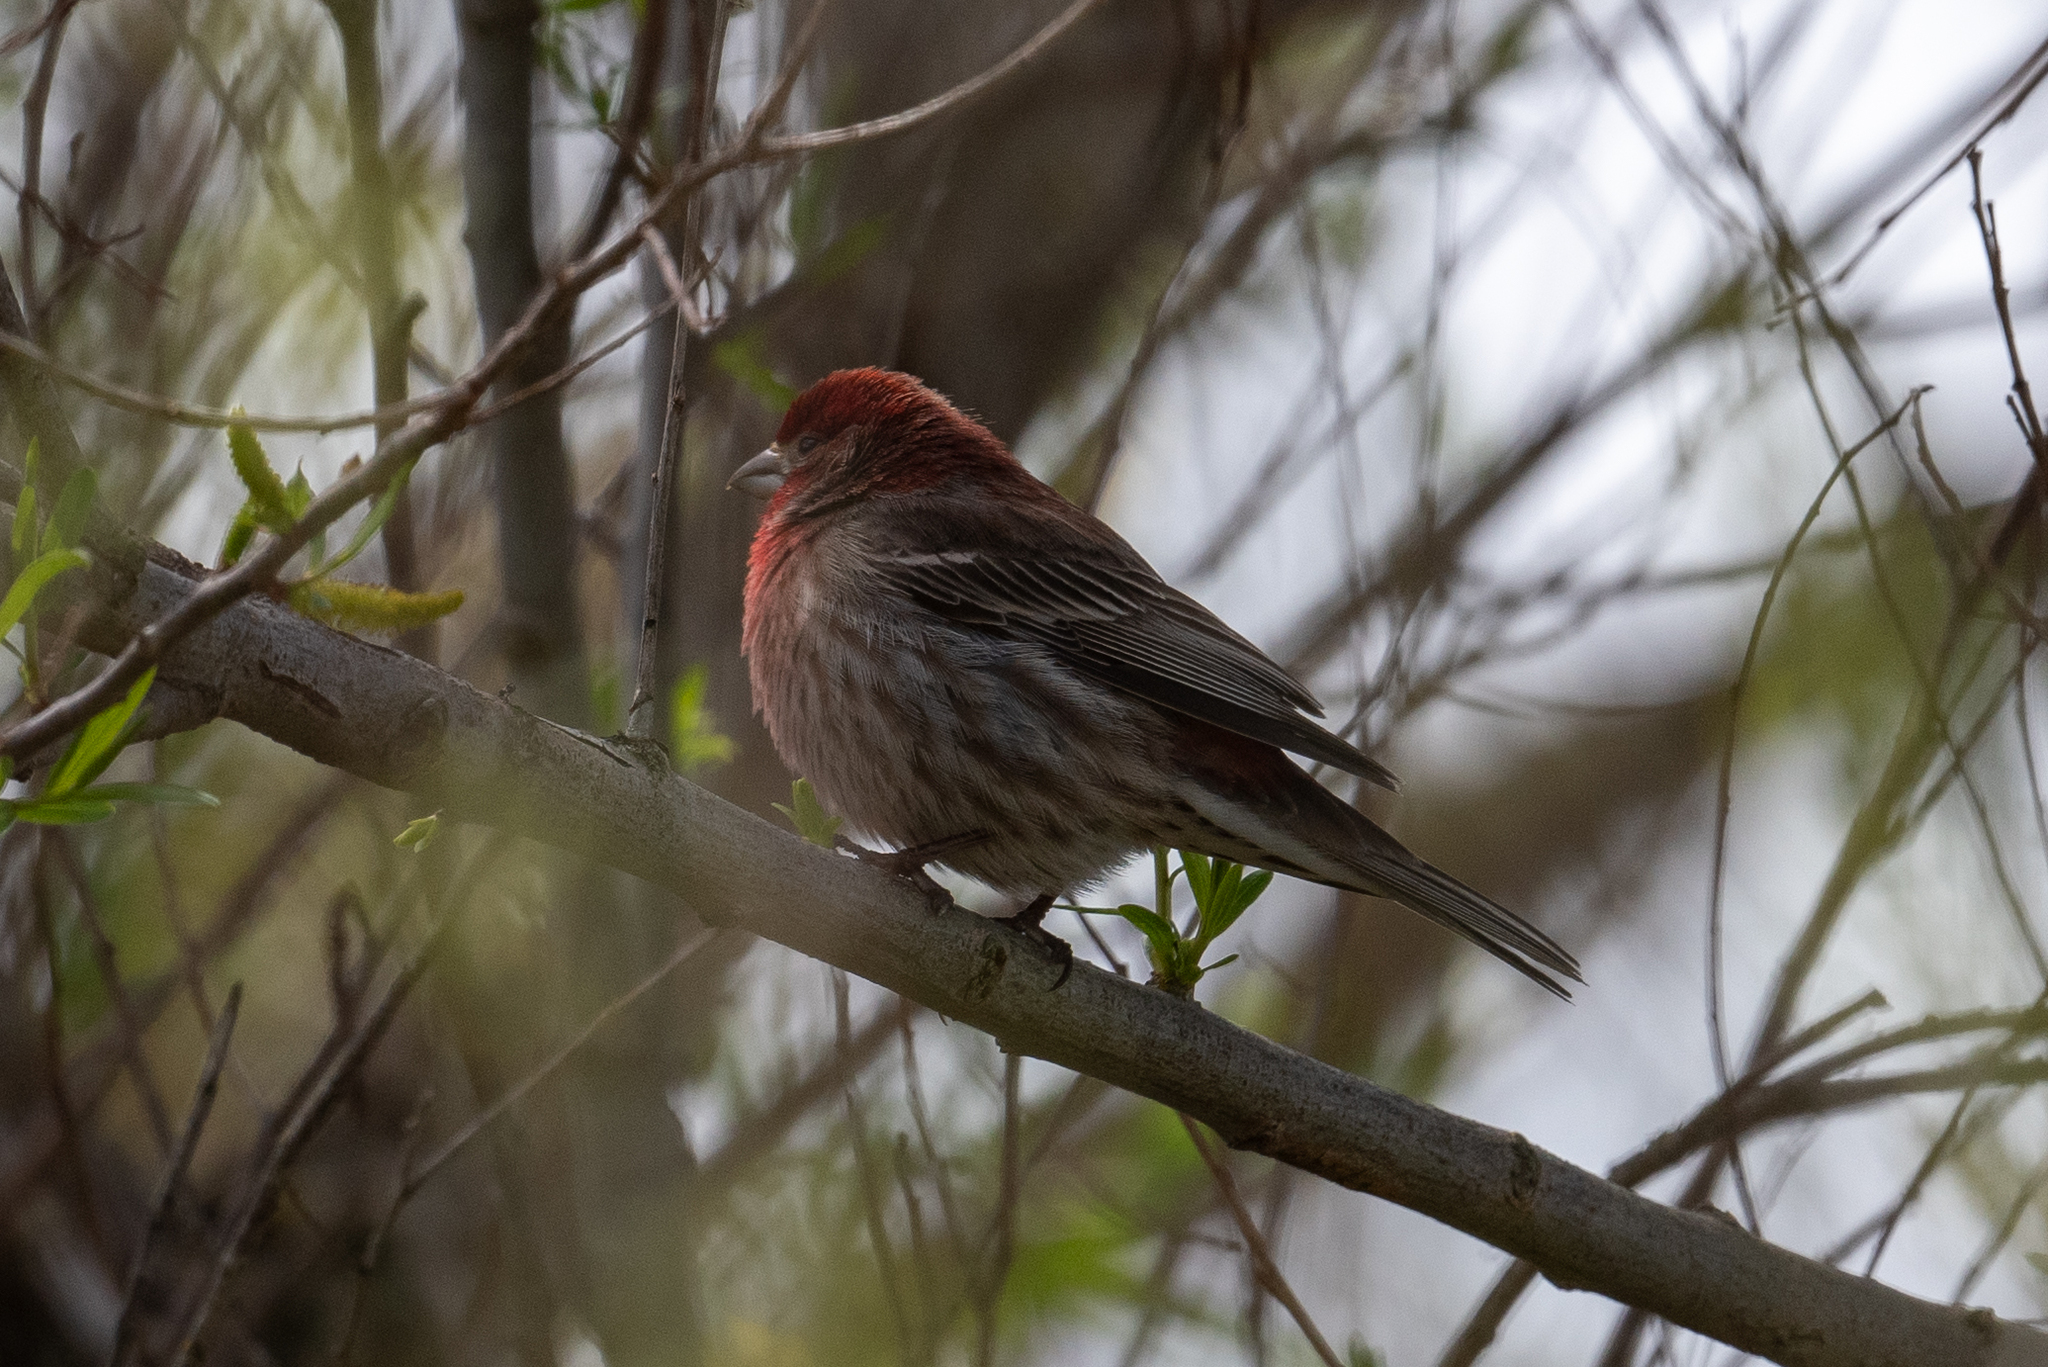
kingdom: Animalia
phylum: Chordata
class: Aves
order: Passeriformes
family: Fringillidae
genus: Haemorhous
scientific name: Haemorhous mexicanus
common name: House finch
